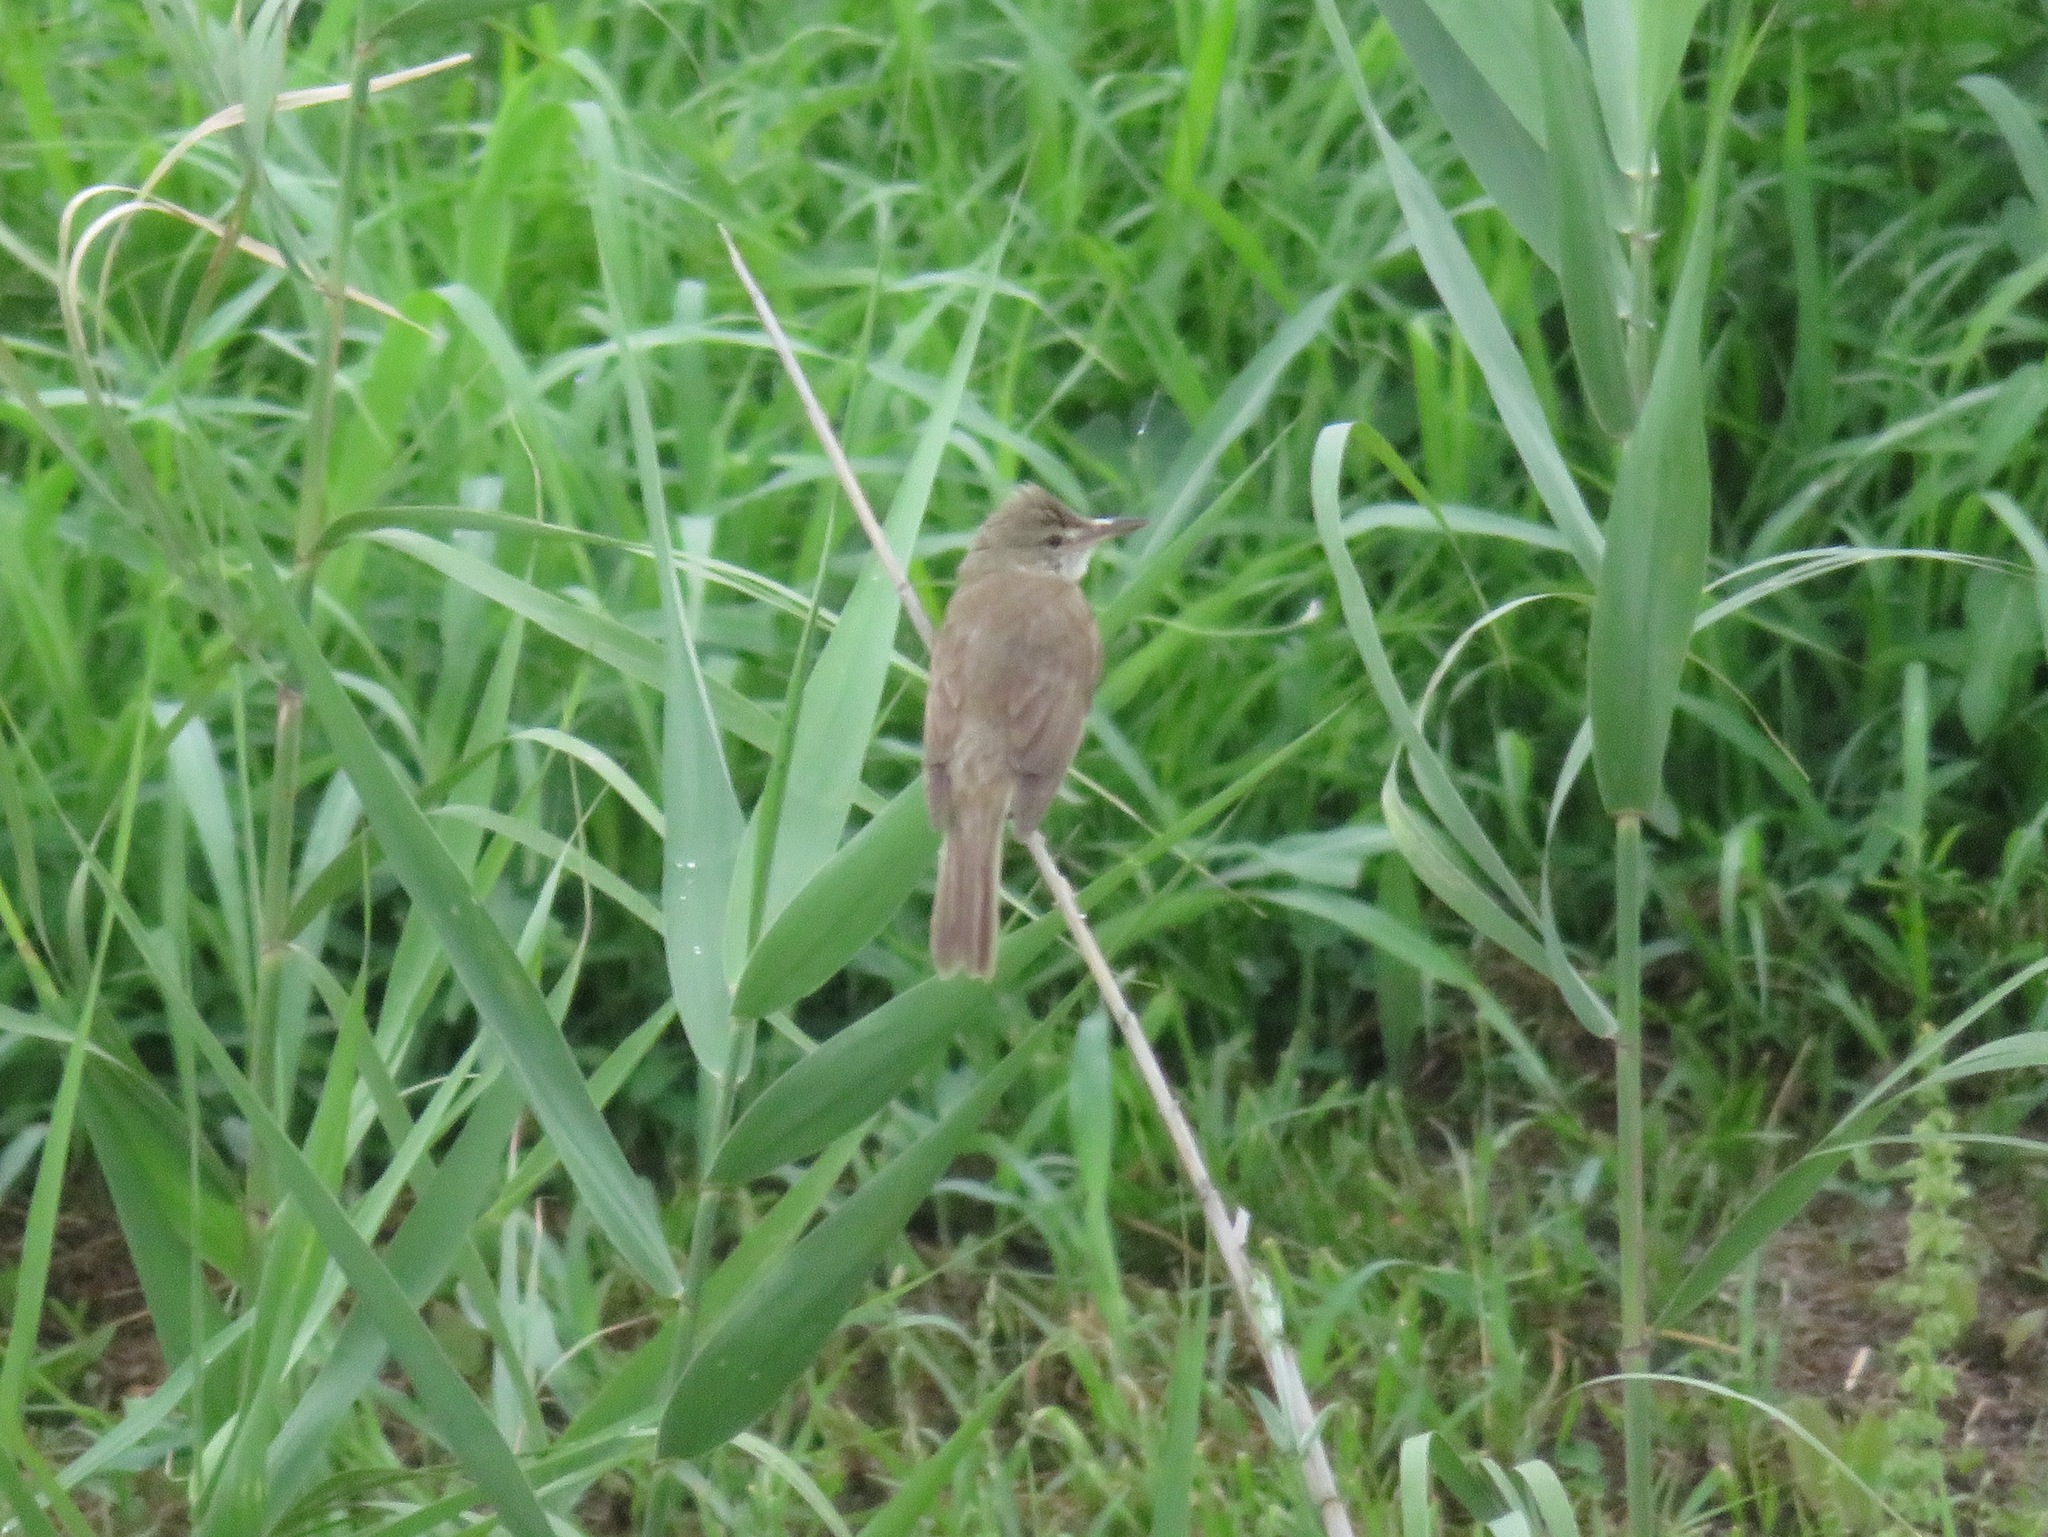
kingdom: Animalia
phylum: Chordata
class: Aves
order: Passeriformes
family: Acrocephalidae
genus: Acrocephalus
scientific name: Acrocephalus orientalis
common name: Oriental reed warbler
